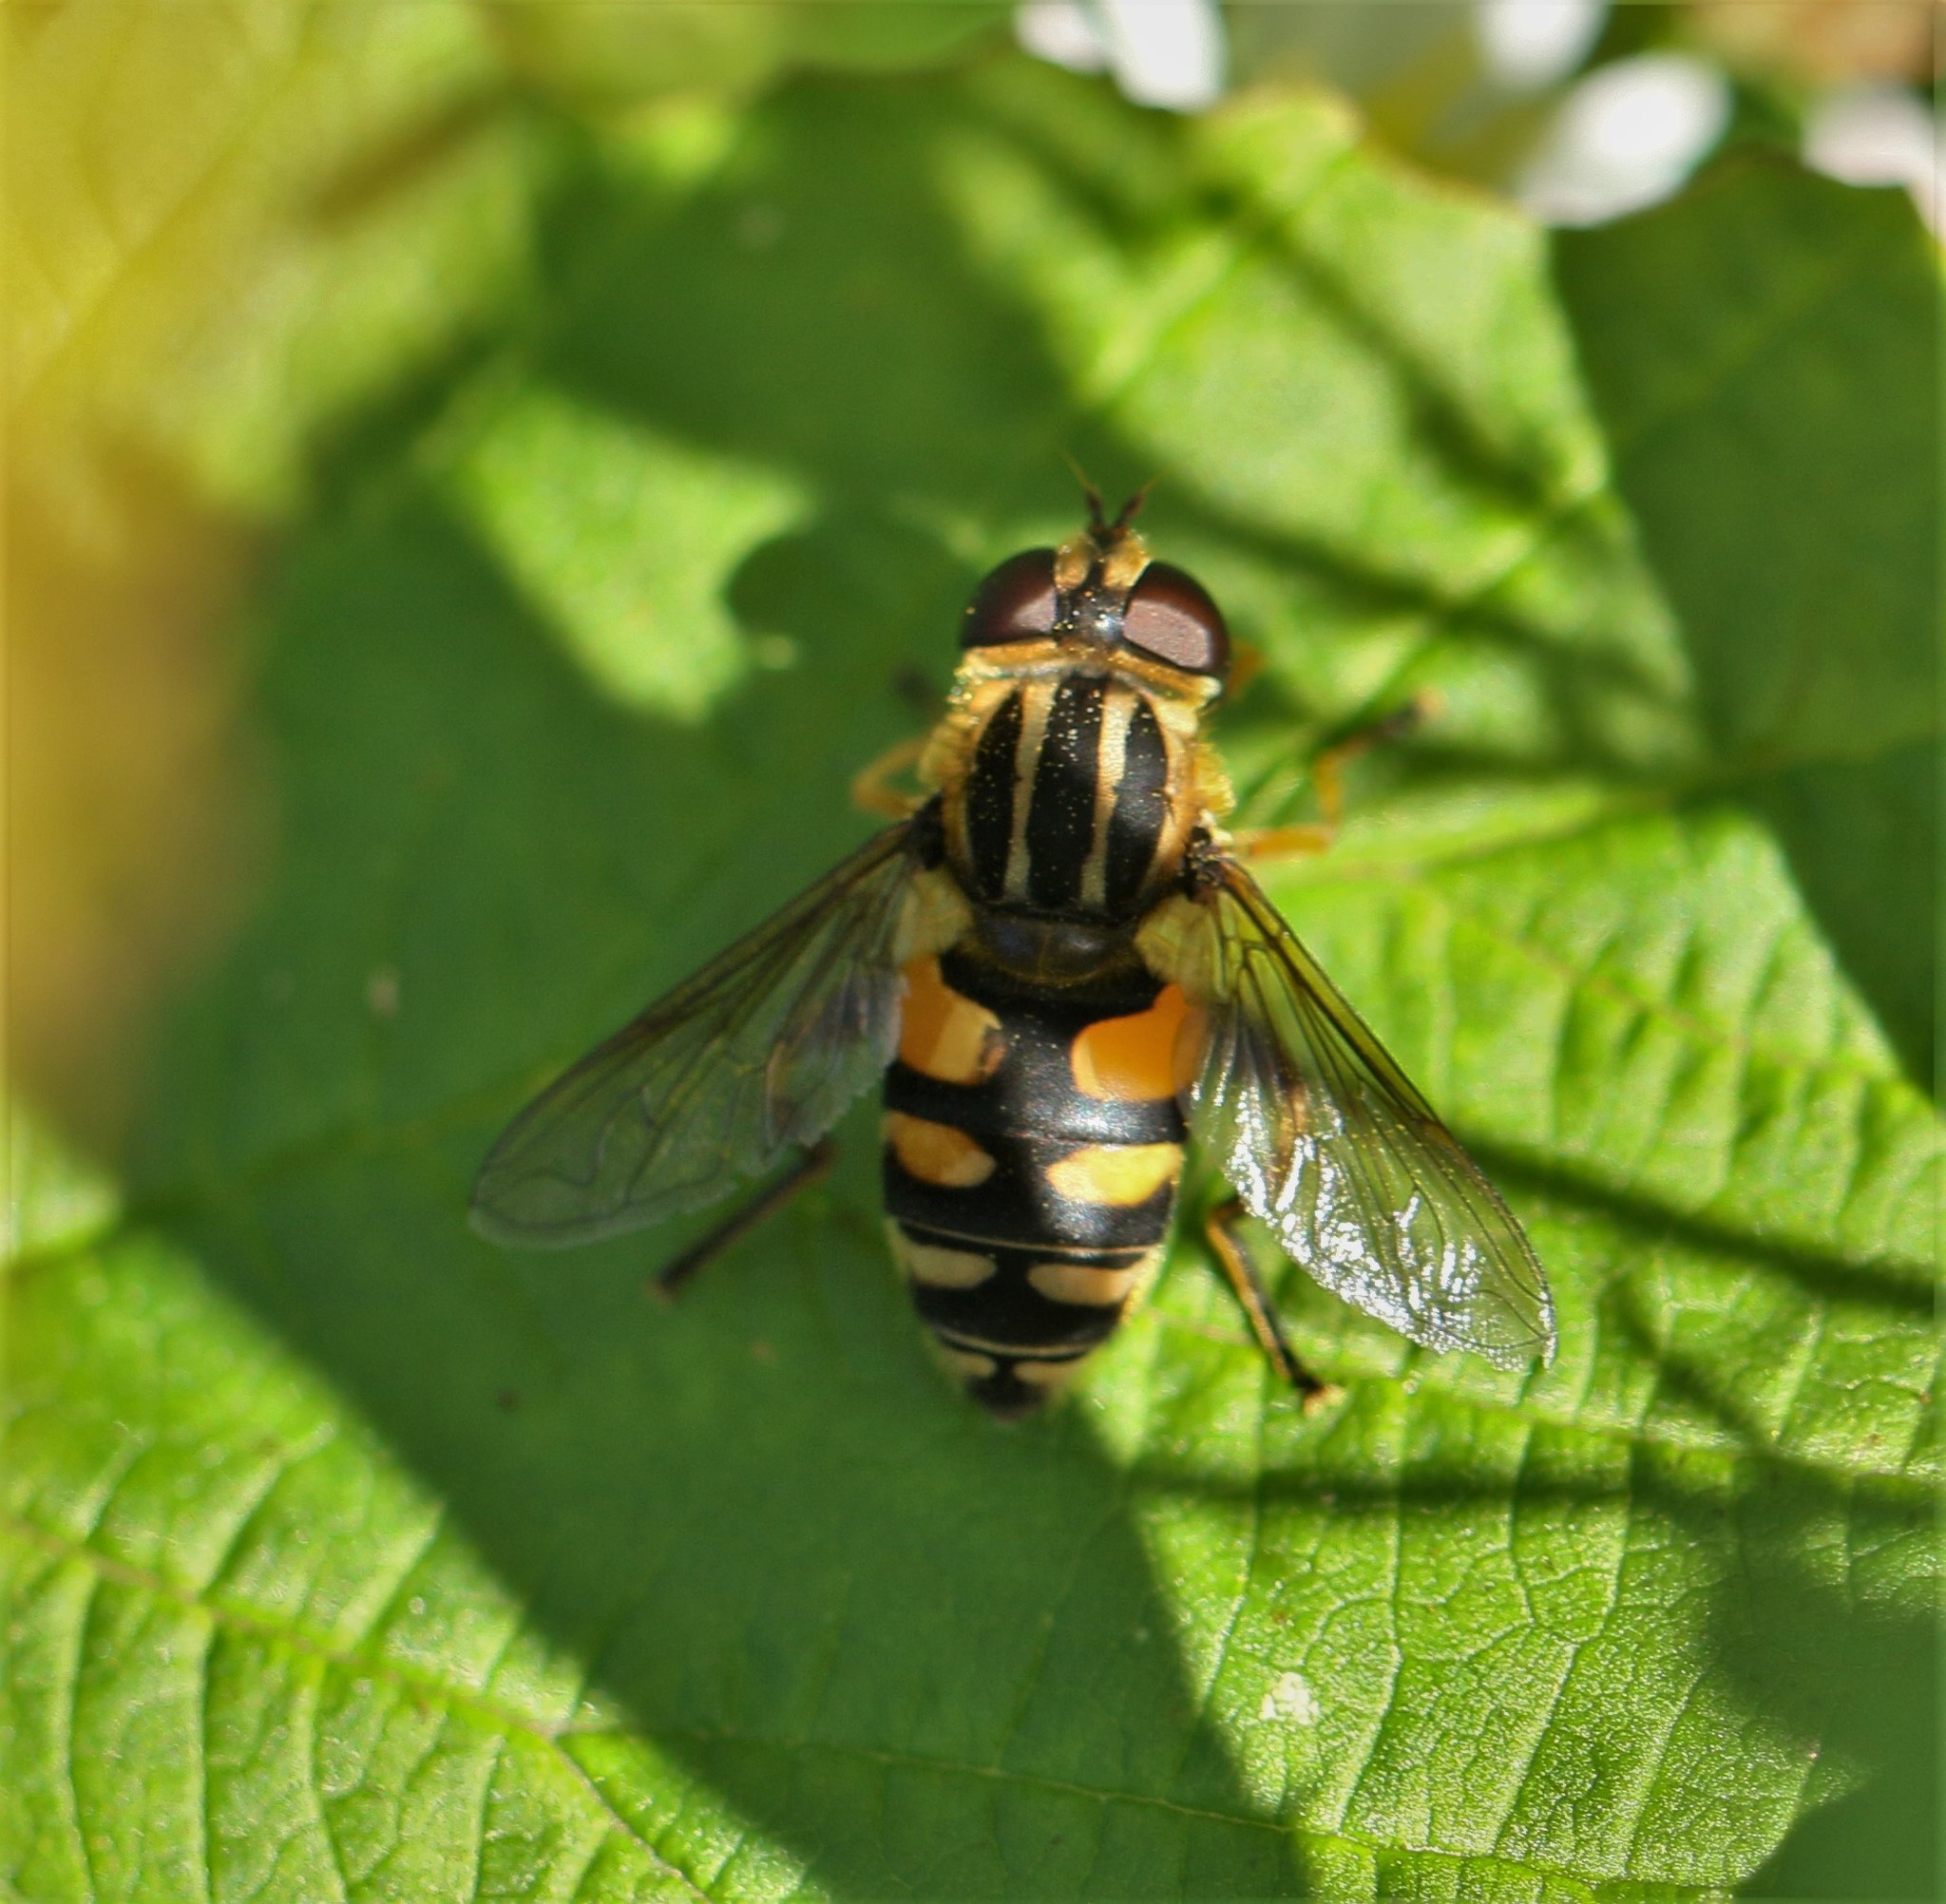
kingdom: Animalia
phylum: Arthropoda
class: Insecta
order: Diptera
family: Syrphidae
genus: Helophilus
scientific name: Helophilus obscurus
